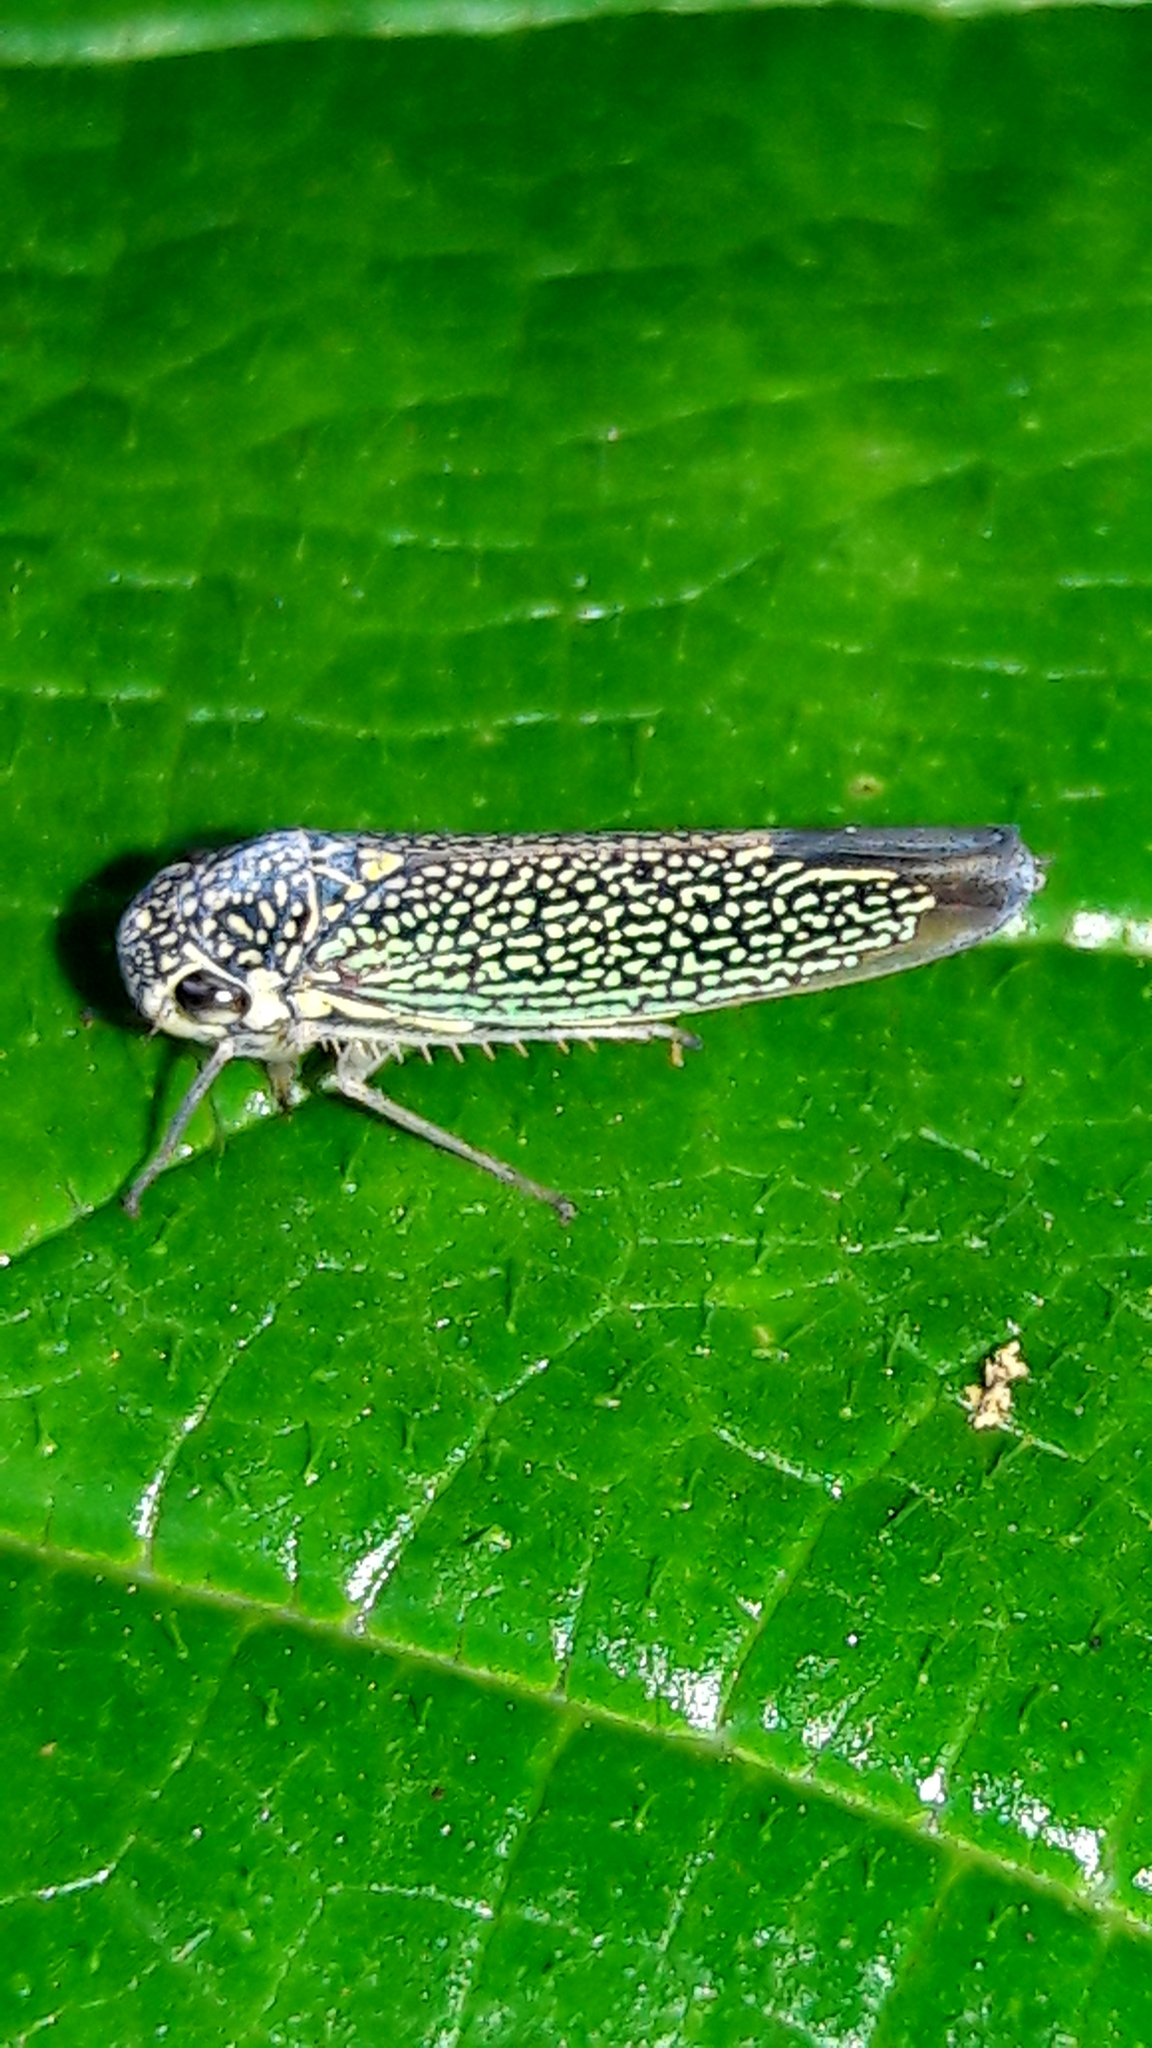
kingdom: Animalia
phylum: Arthropoda
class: Insecta
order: Hemiptera
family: Cicadellidae
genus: Macugonalia
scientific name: Macugonalia cavifrons
